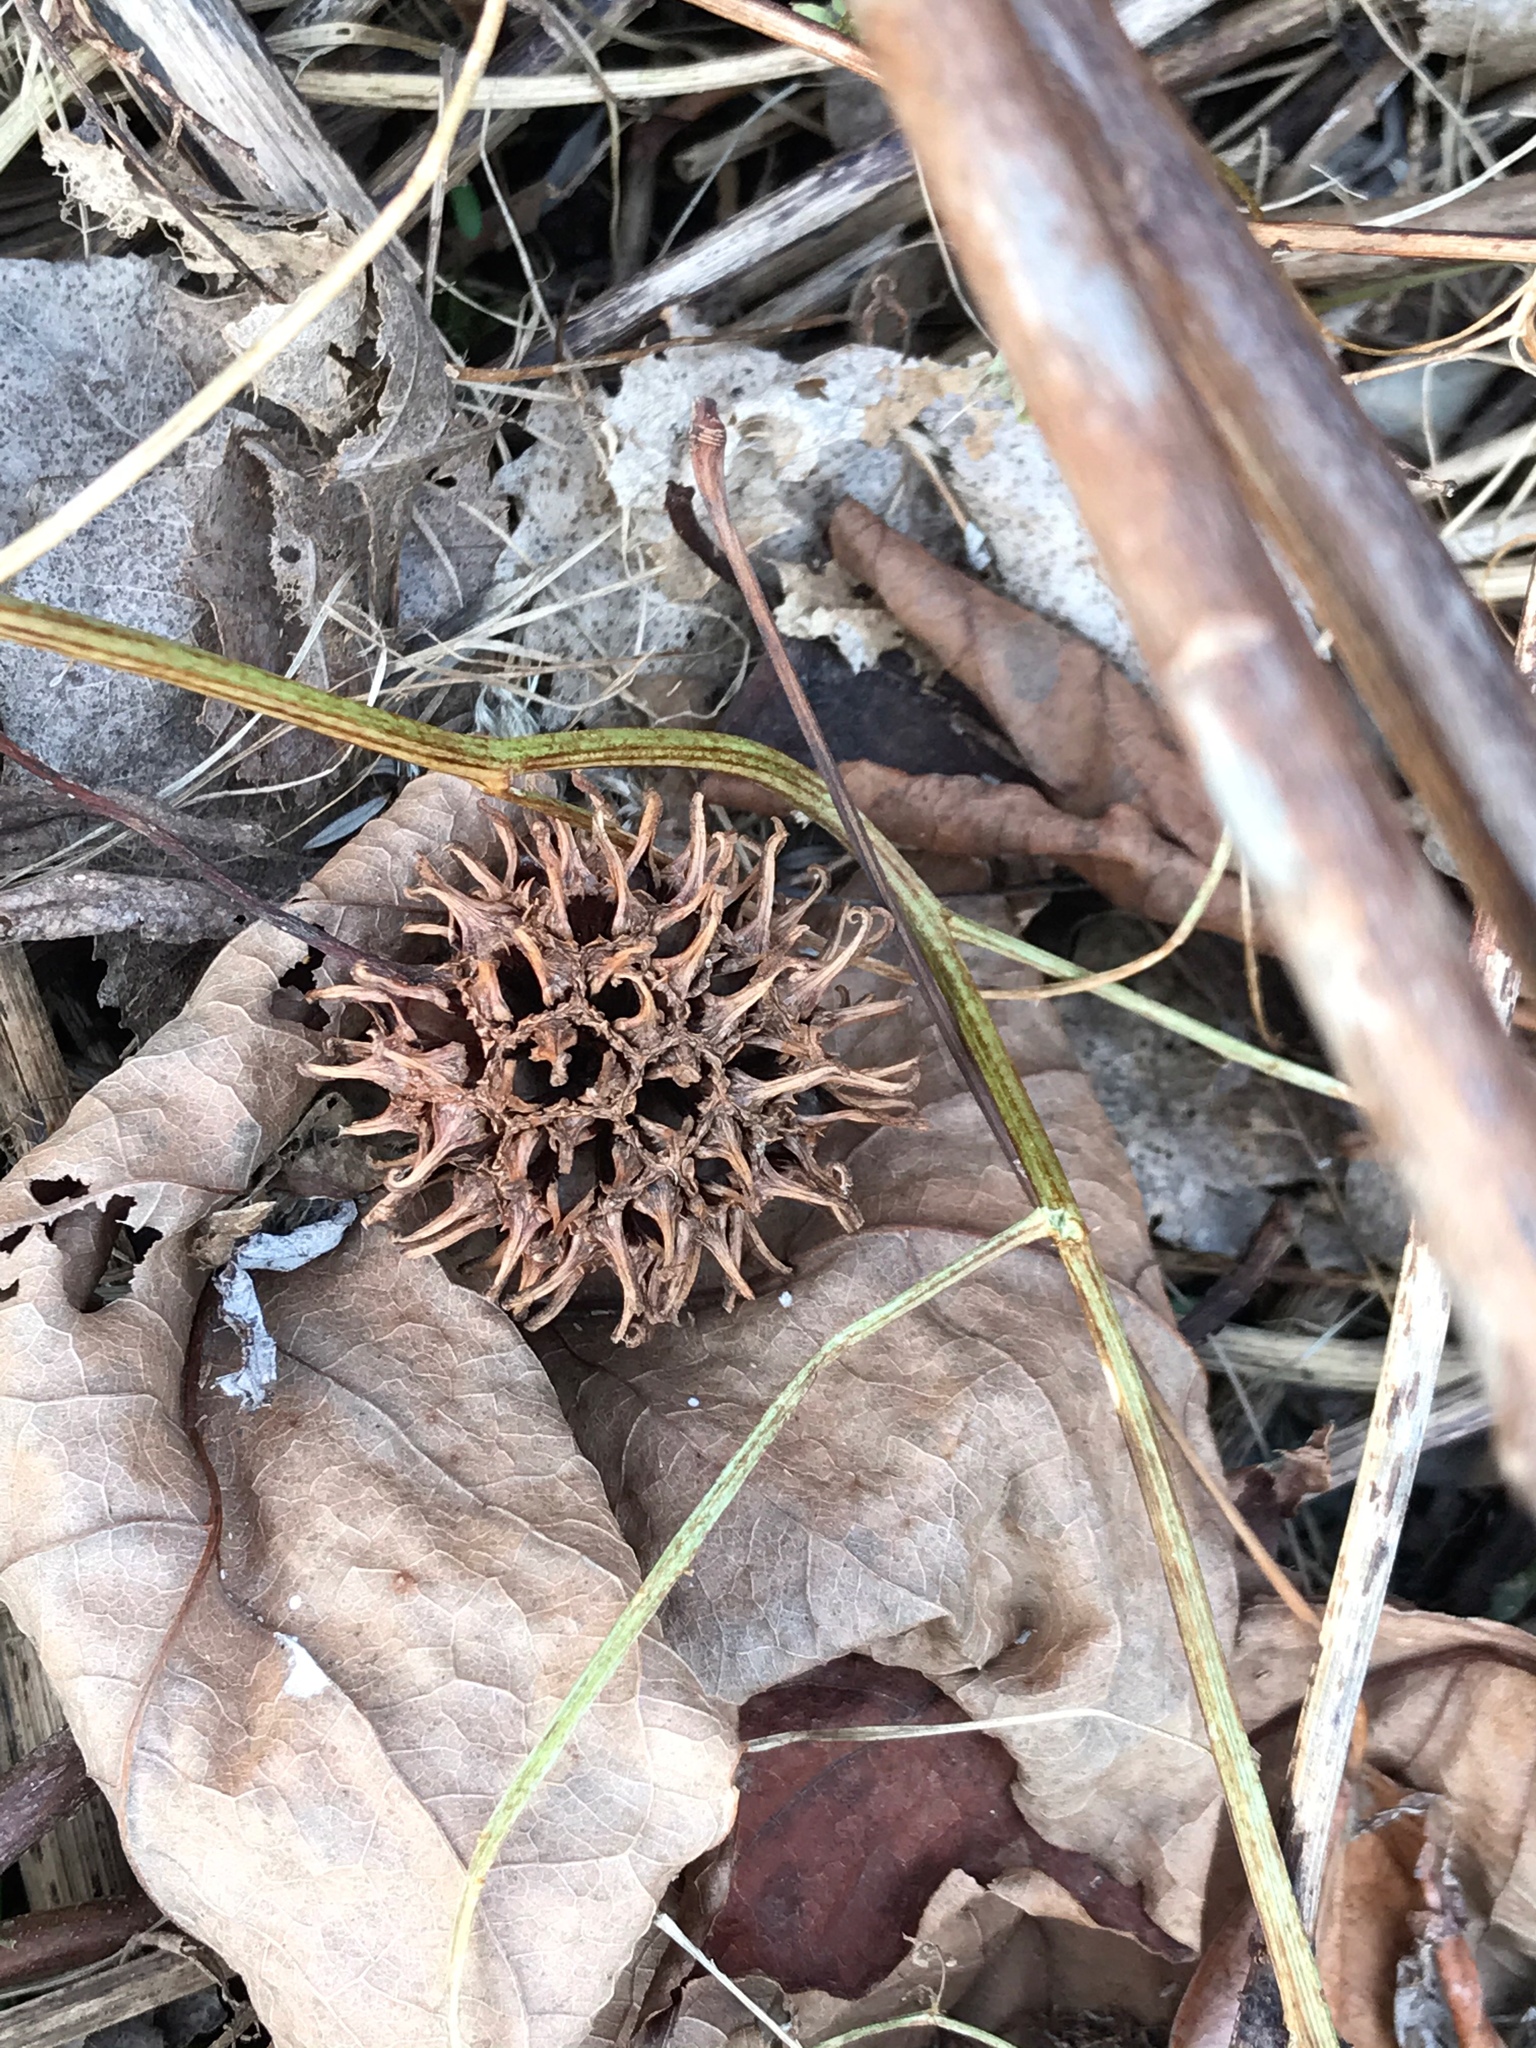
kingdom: Plantae
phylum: Tracheophyta
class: Magnoliopsida
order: Saxifragales
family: Altingiaceae
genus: Liquidambar
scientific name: Liquidambar styraciflua
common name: Sweet gum
